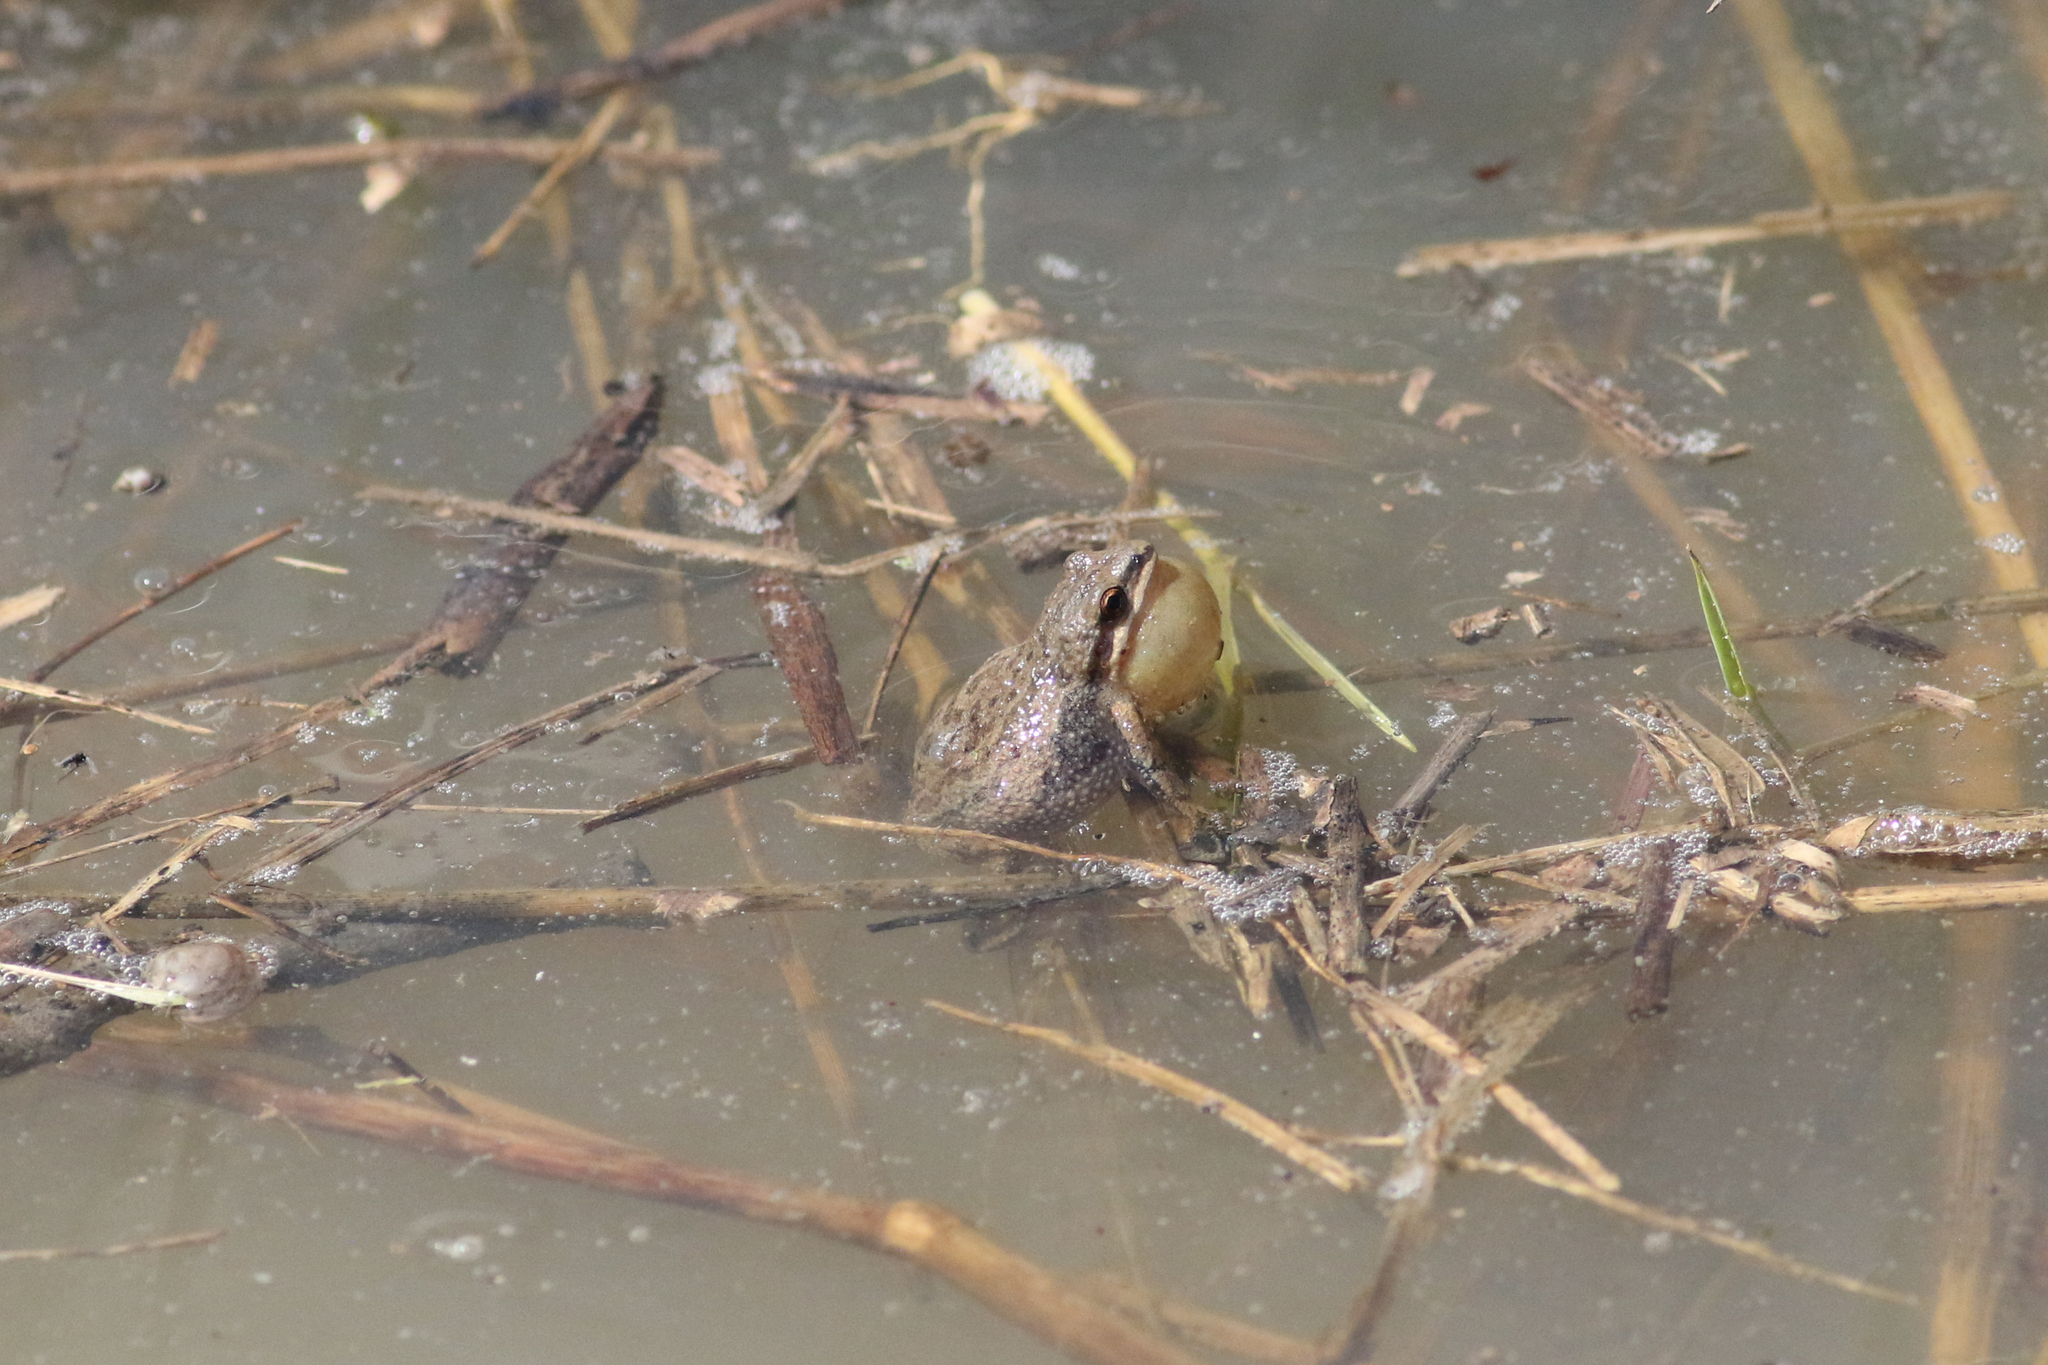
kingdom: Animalia
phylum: Chordata
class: Amphibia
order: Anura
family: Hylidae
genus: Pseudacris
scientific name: Pseudacris triseriata
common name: Western chorus frog
